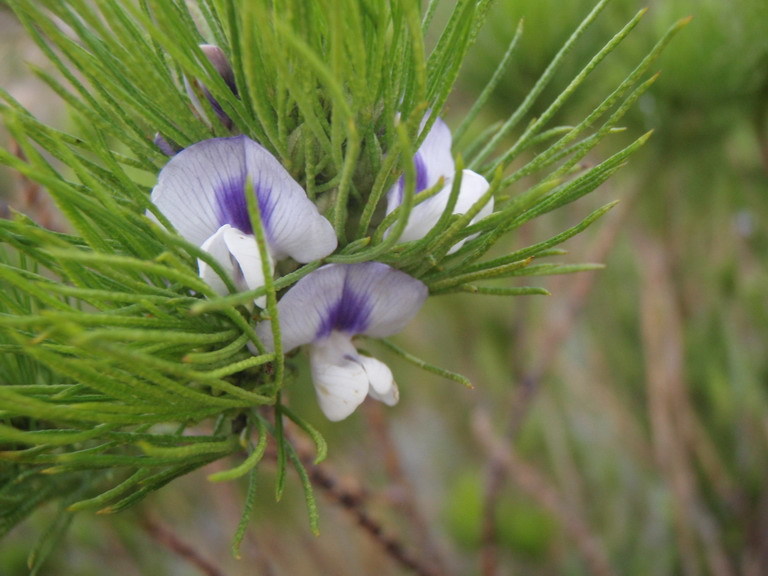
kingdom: Plantae
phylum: Tracheophyta
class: Magnoliopsida
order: Fabales
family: Fabaceae
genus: Psoralea
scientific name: Psoralea kougaensis
